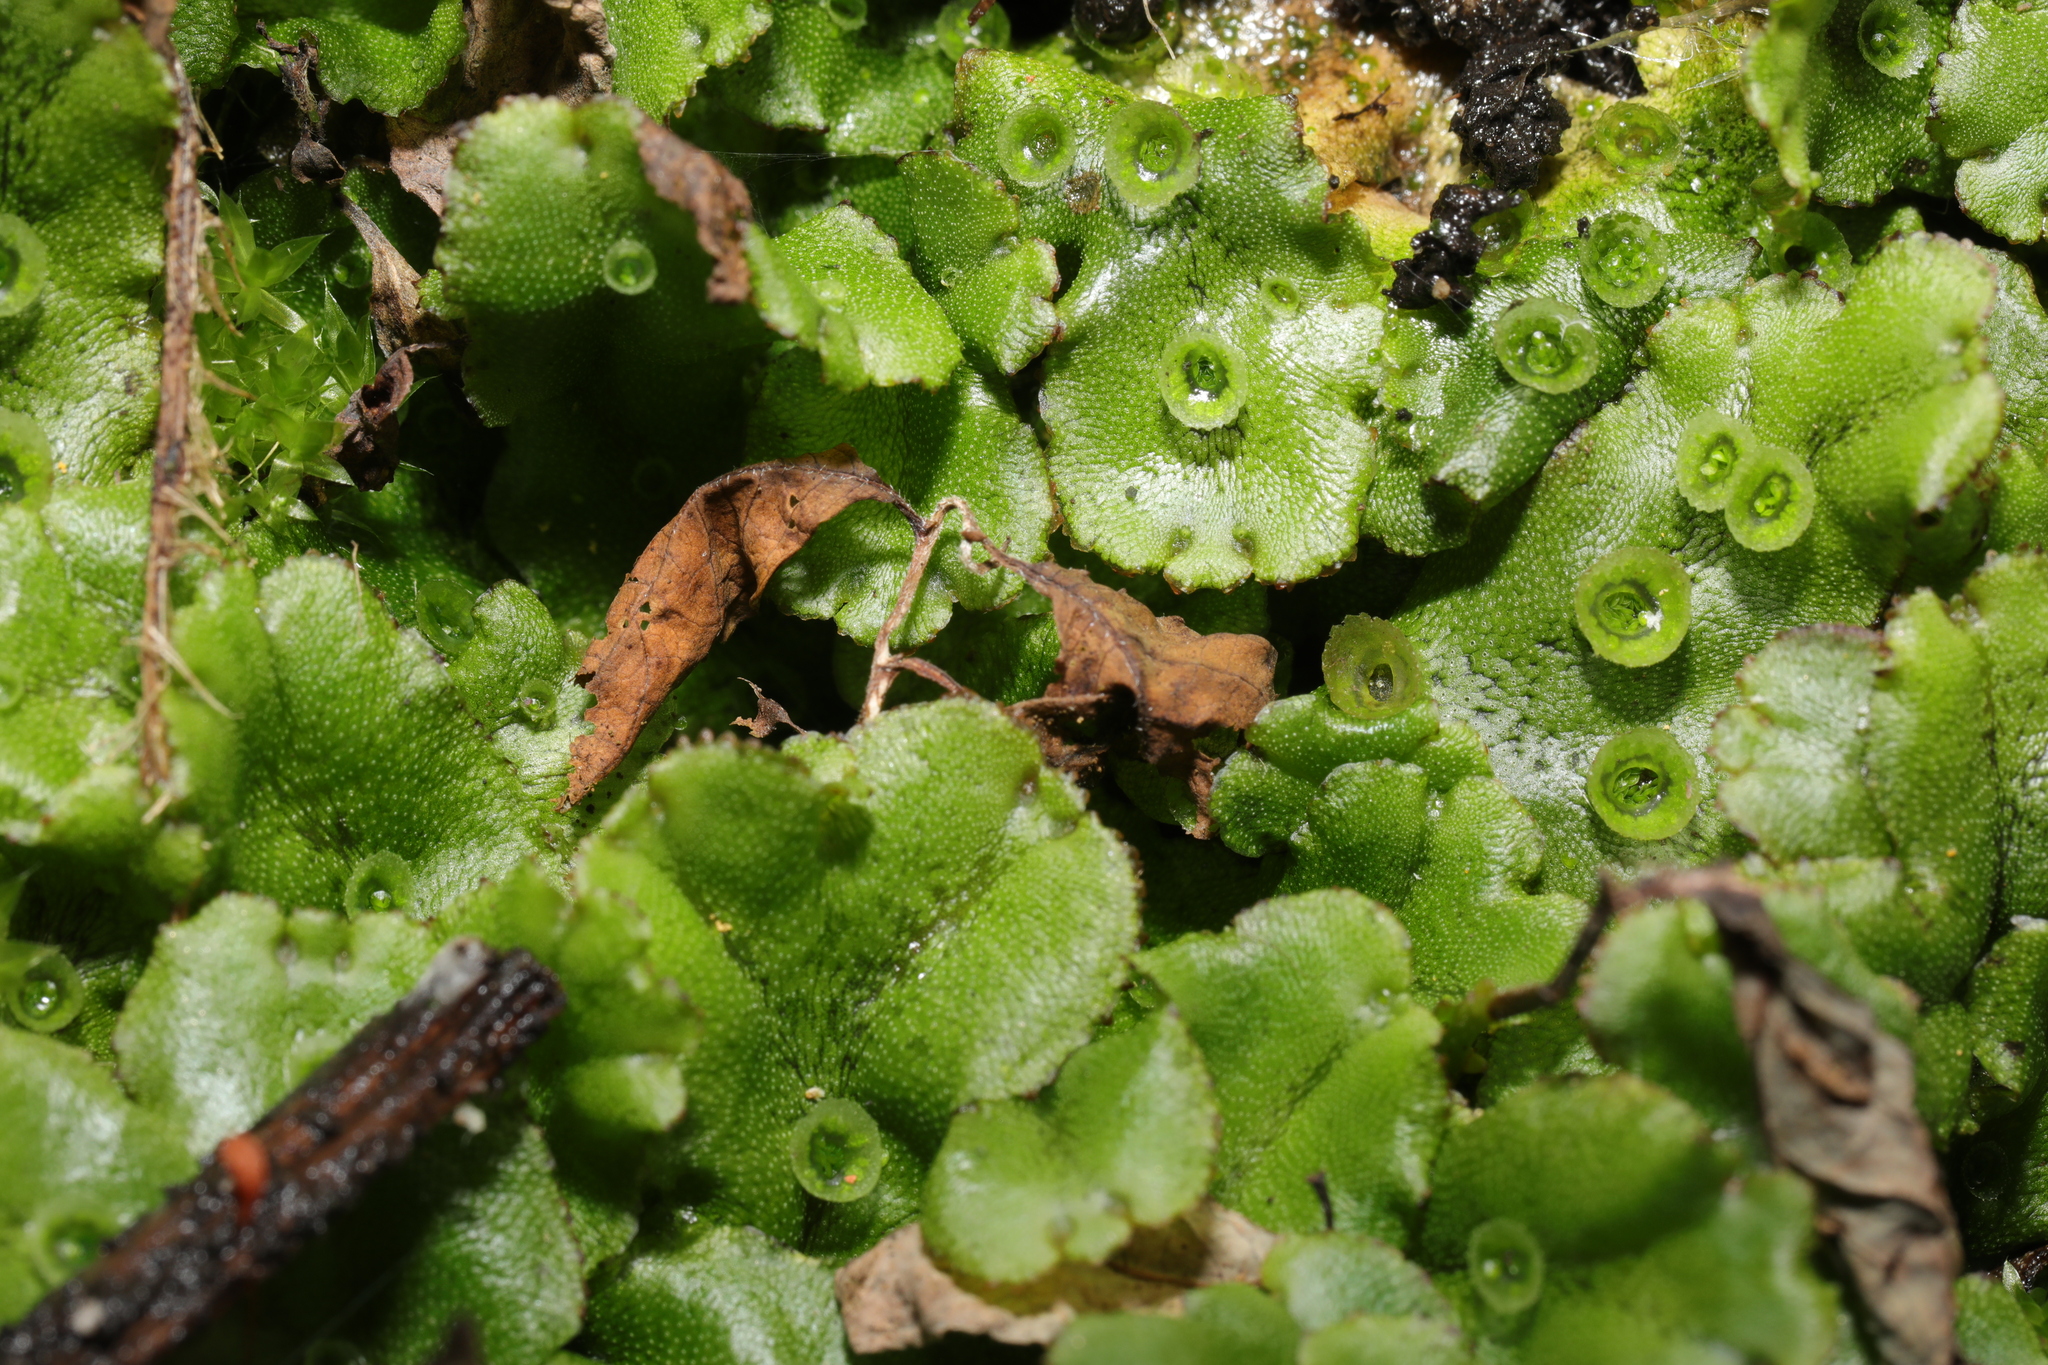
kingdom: Plantae
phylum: Marchantiophyta
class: Marchantiopsida
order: Marchantiales
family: Marchantiaceae
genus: Marchantia
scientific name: Marchantia polymorpha
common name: Common liverwort
